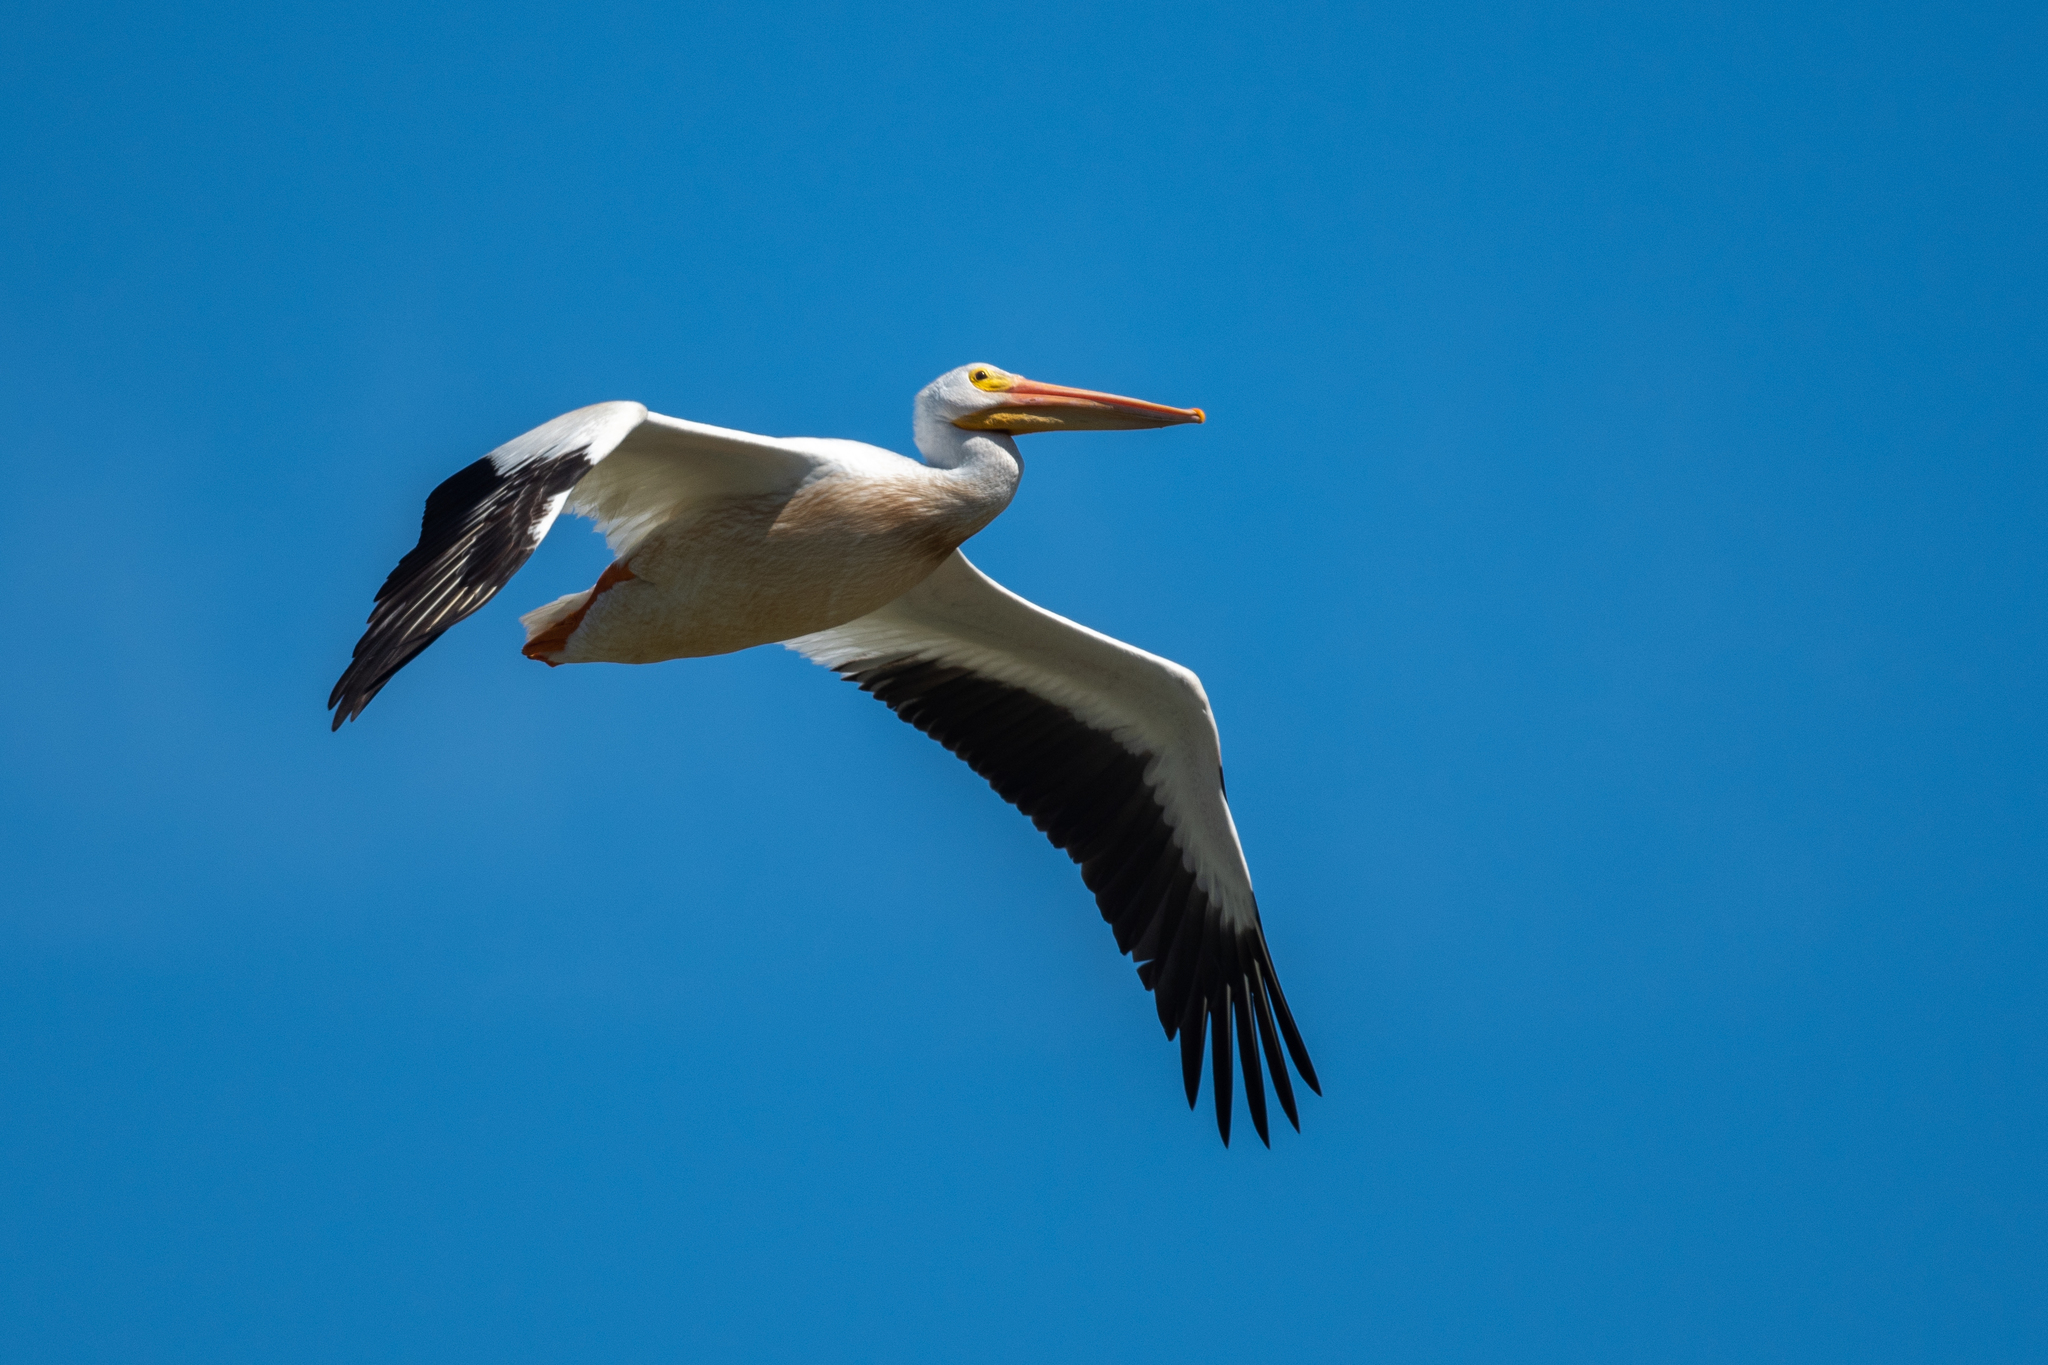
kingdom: Animalia
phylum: Chordata
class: Aves
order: Pelecaniformes
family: Pelecanidae
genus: Pelecanus
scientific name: Pelecanus erythrorhynchos
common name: American white pelican
